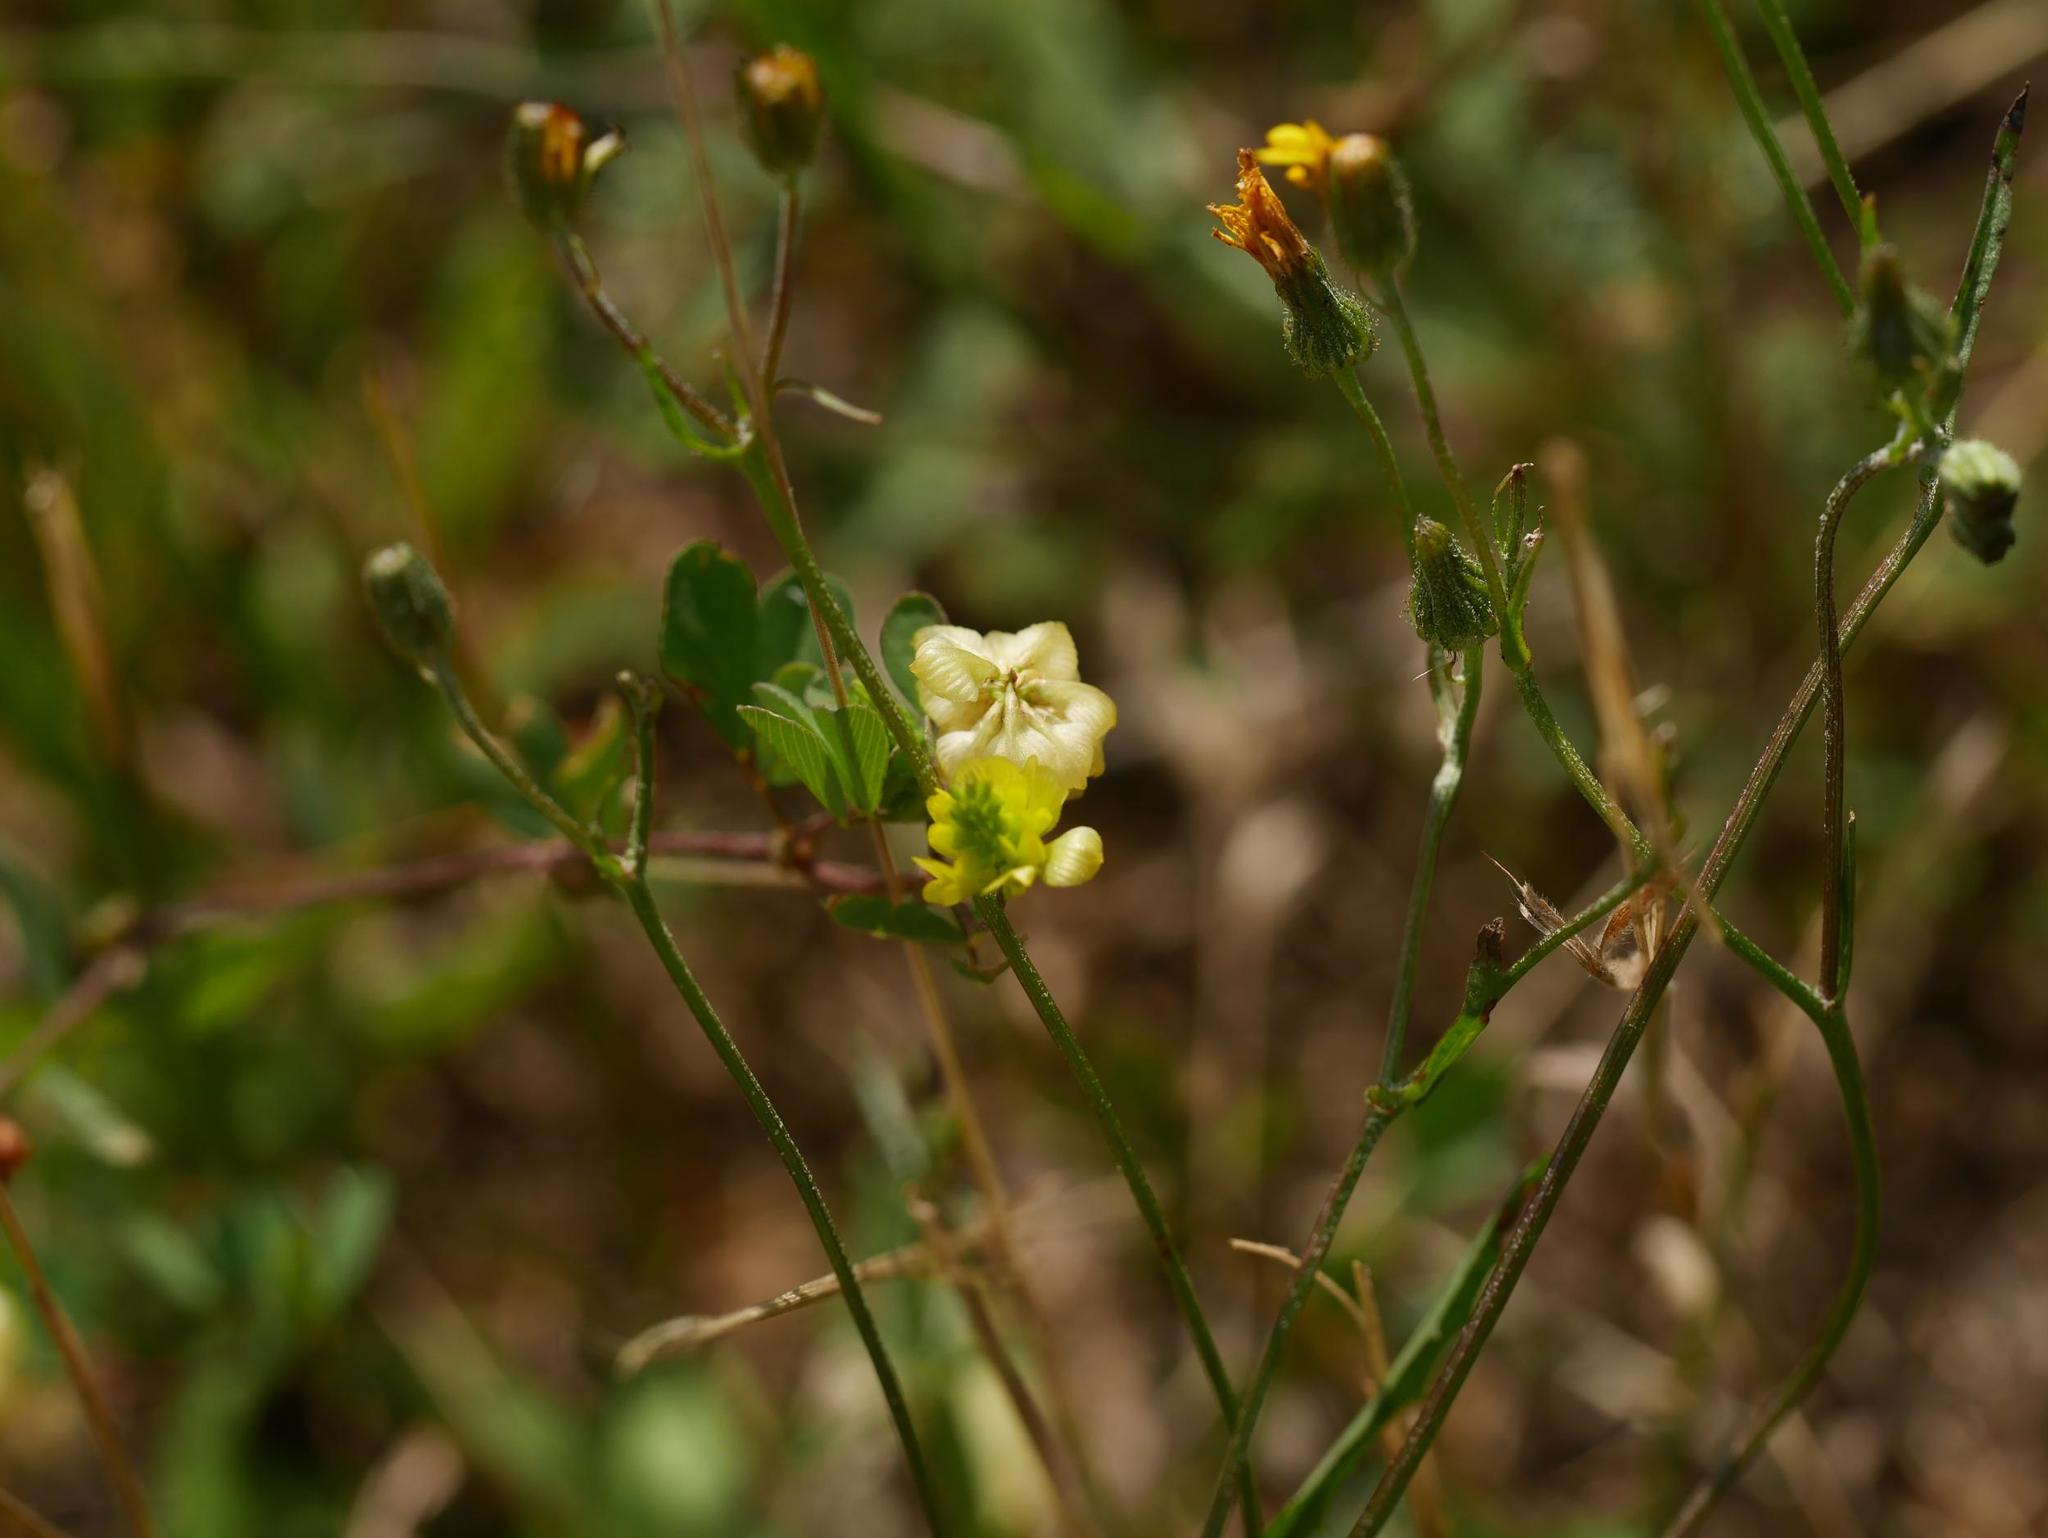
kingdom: Plantae
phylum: Tracheophyta
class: Magnoliopsida
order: Fabales
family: Fabaceae
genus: Trifolium
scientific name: Trifolium campestre
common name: Field clover
